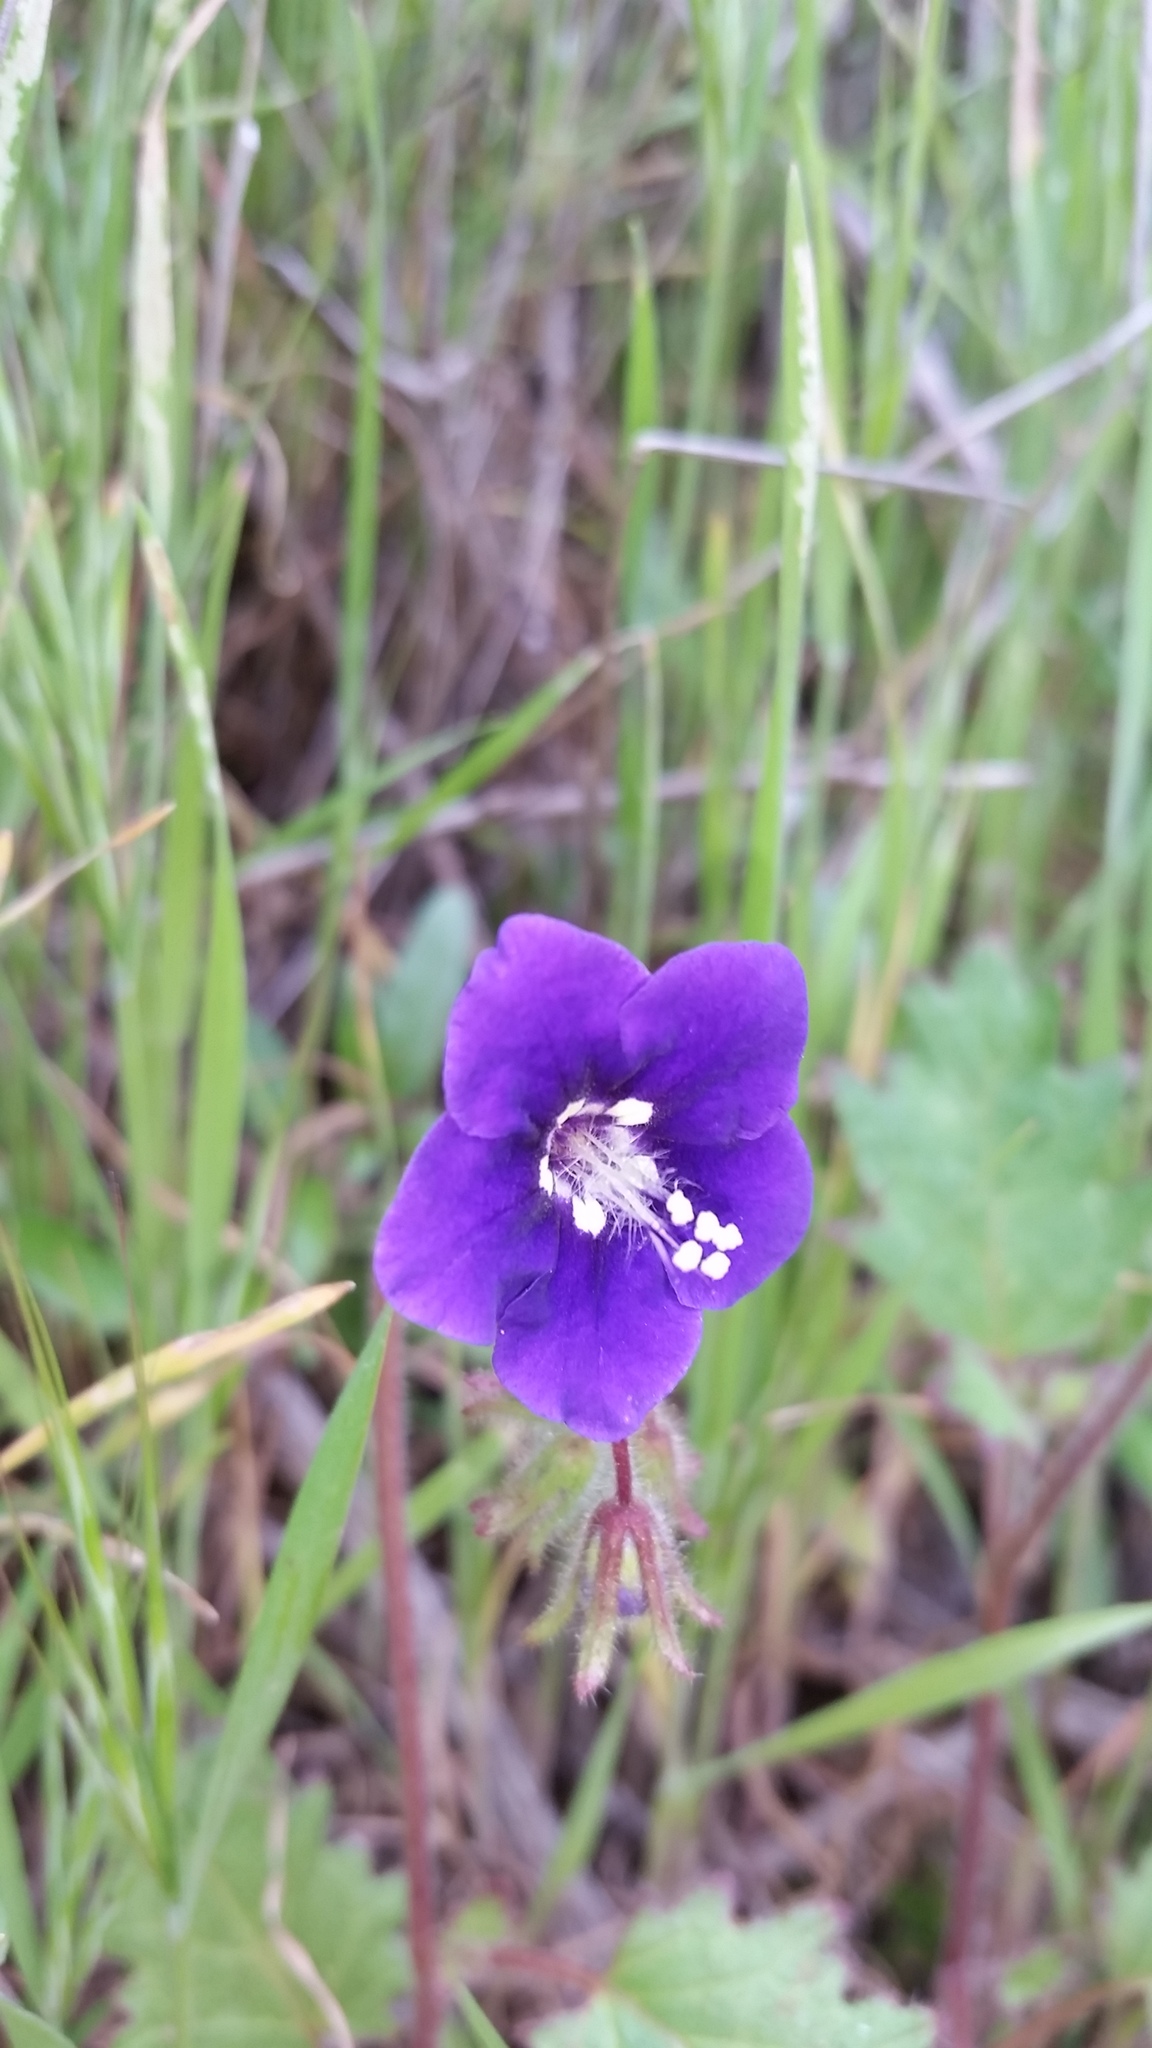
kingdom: Plantae
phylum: Tracheophyta
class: Magnoliopsida
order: Boraginales
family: Hydrophyllaceae
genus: Phacelia
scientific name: Phacelia parryi
